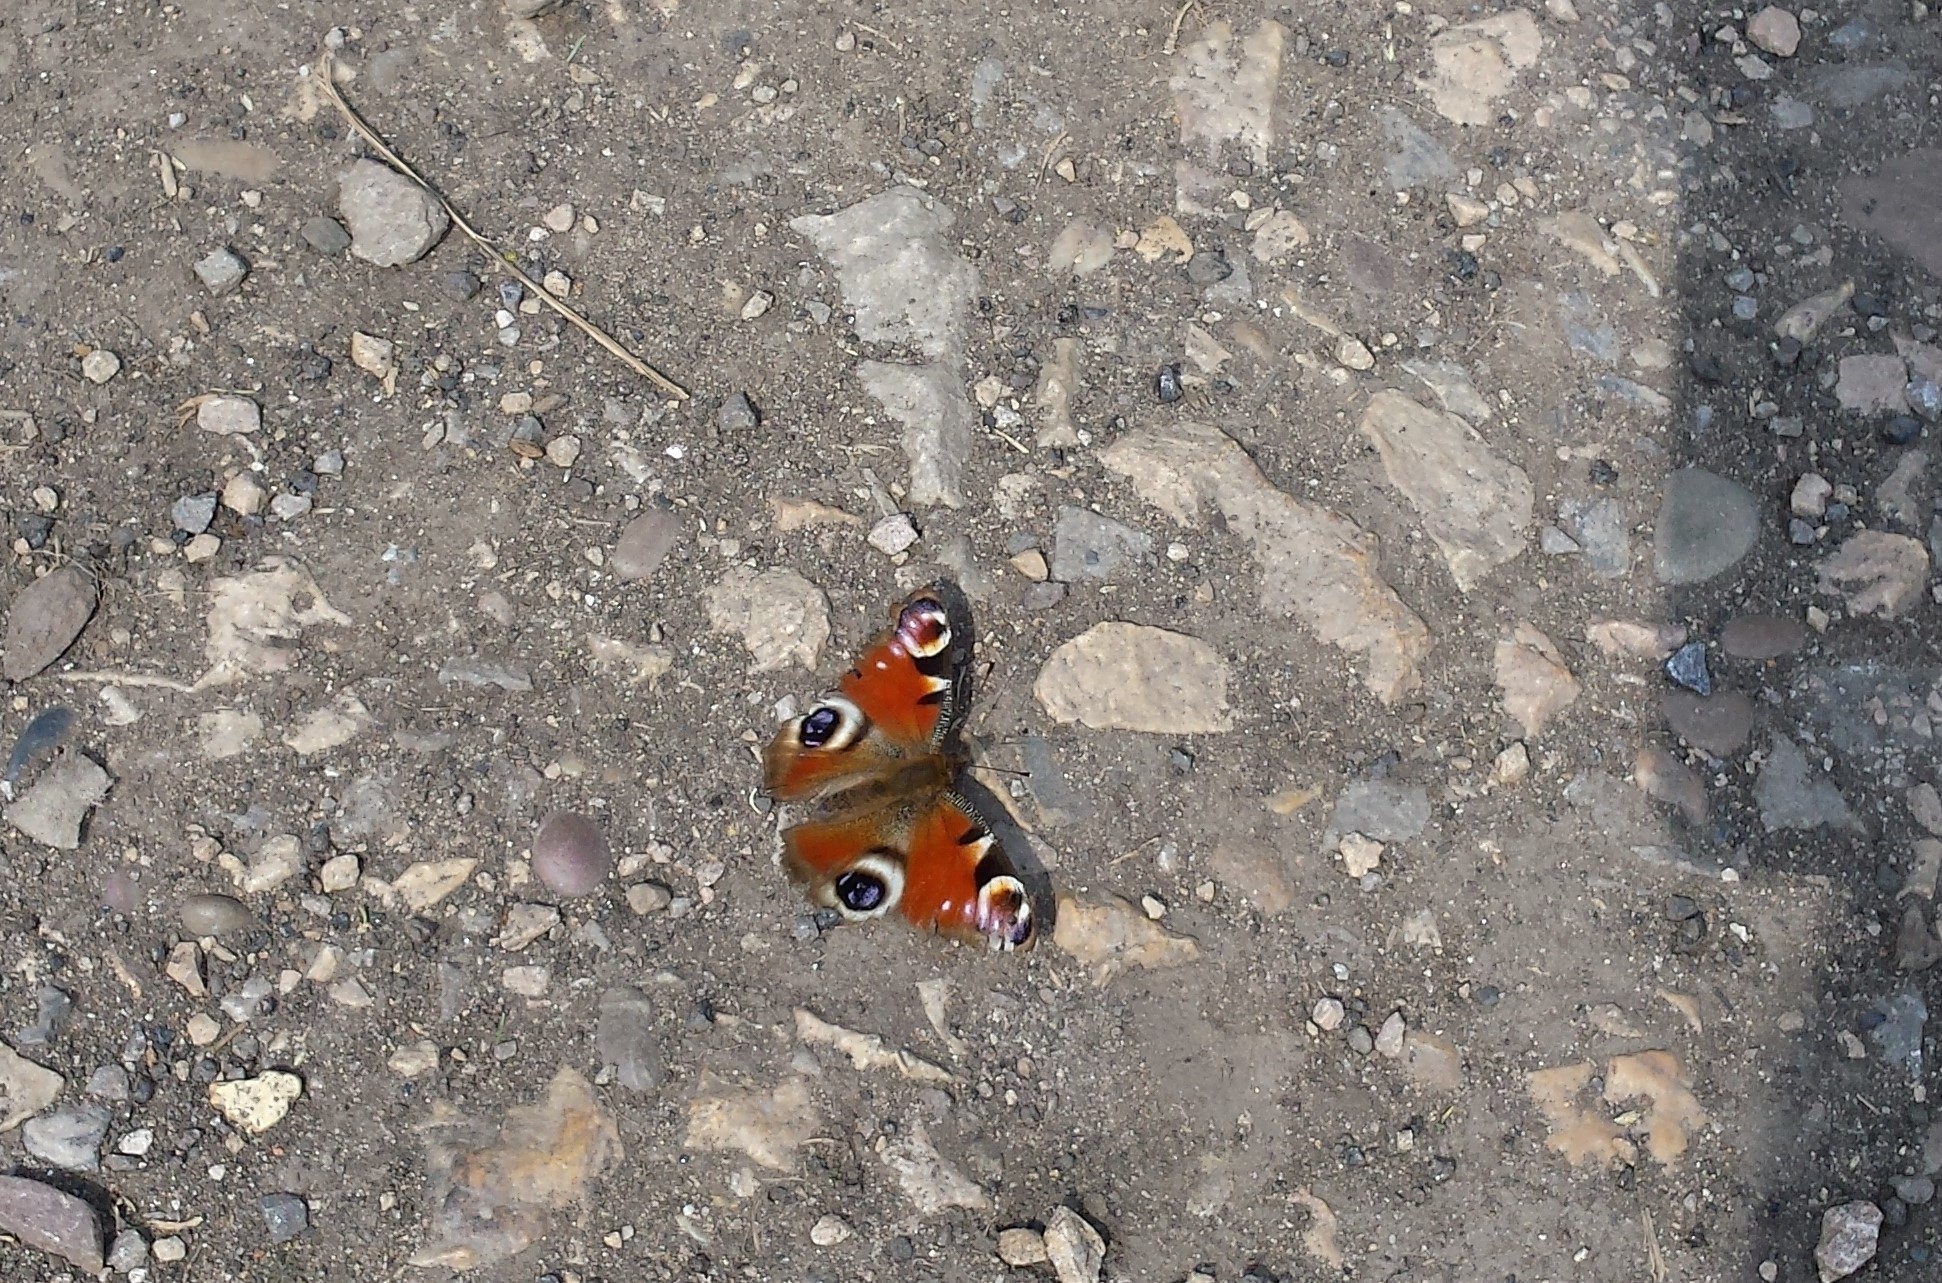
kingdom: Animalia
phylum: Arthropoda
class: Insecta
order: Lepidoptera
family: Nymphalidae
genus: Aglais
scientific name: Aglais io
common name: Peacock
